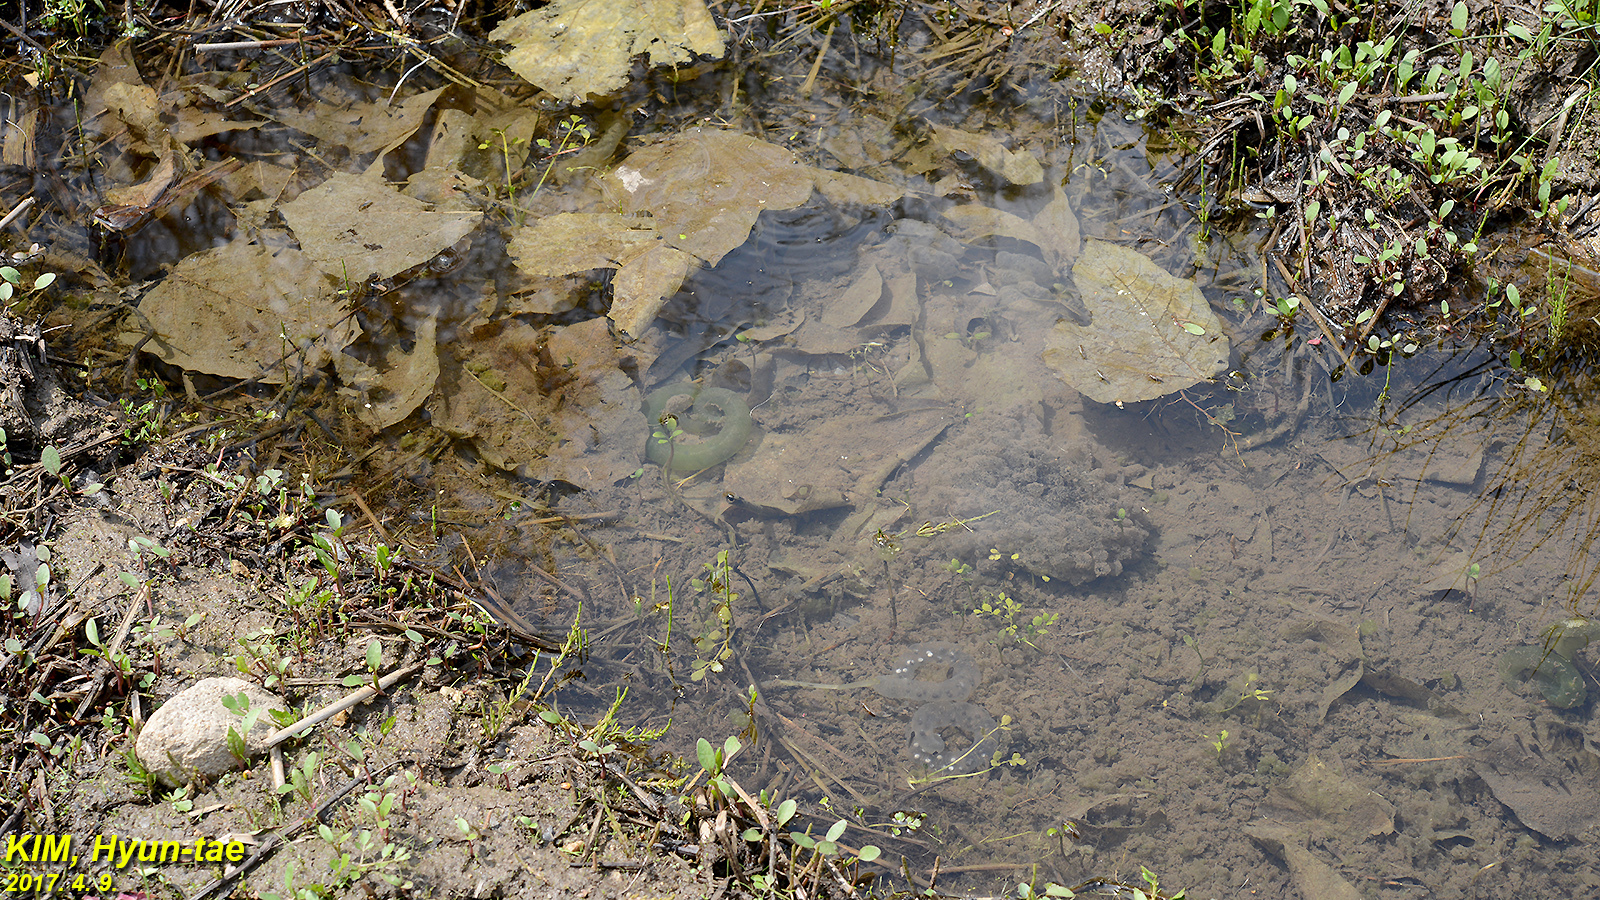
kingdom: Animalia
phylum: Chordata
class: Amphibia
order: Anura
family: Ranidae
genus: Rana
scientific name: Rana uenoi
